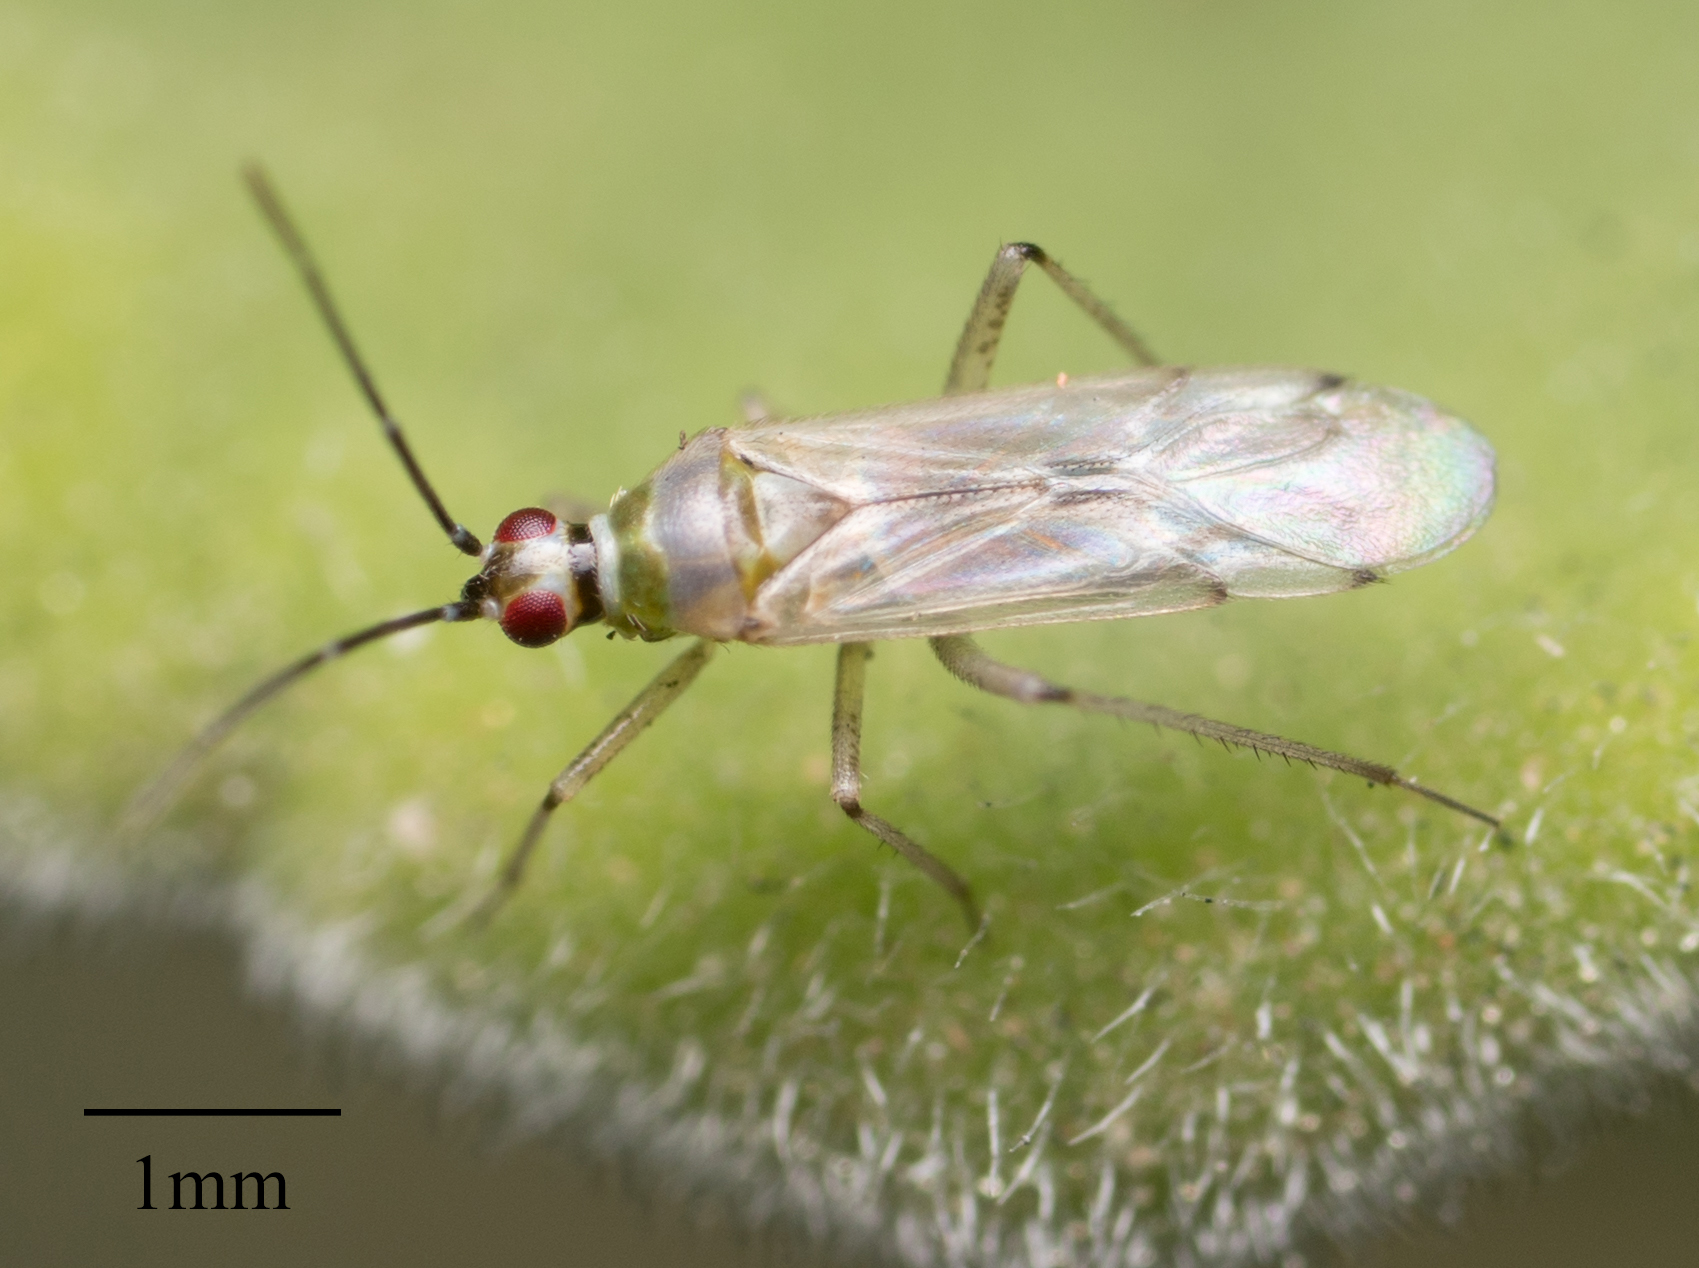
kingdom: Animalia
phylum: Arthropoda
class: Insecta
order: Hemiptera
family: Miridae
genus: Engytatus
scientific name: Engytatus modestus
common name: Tomato bug
